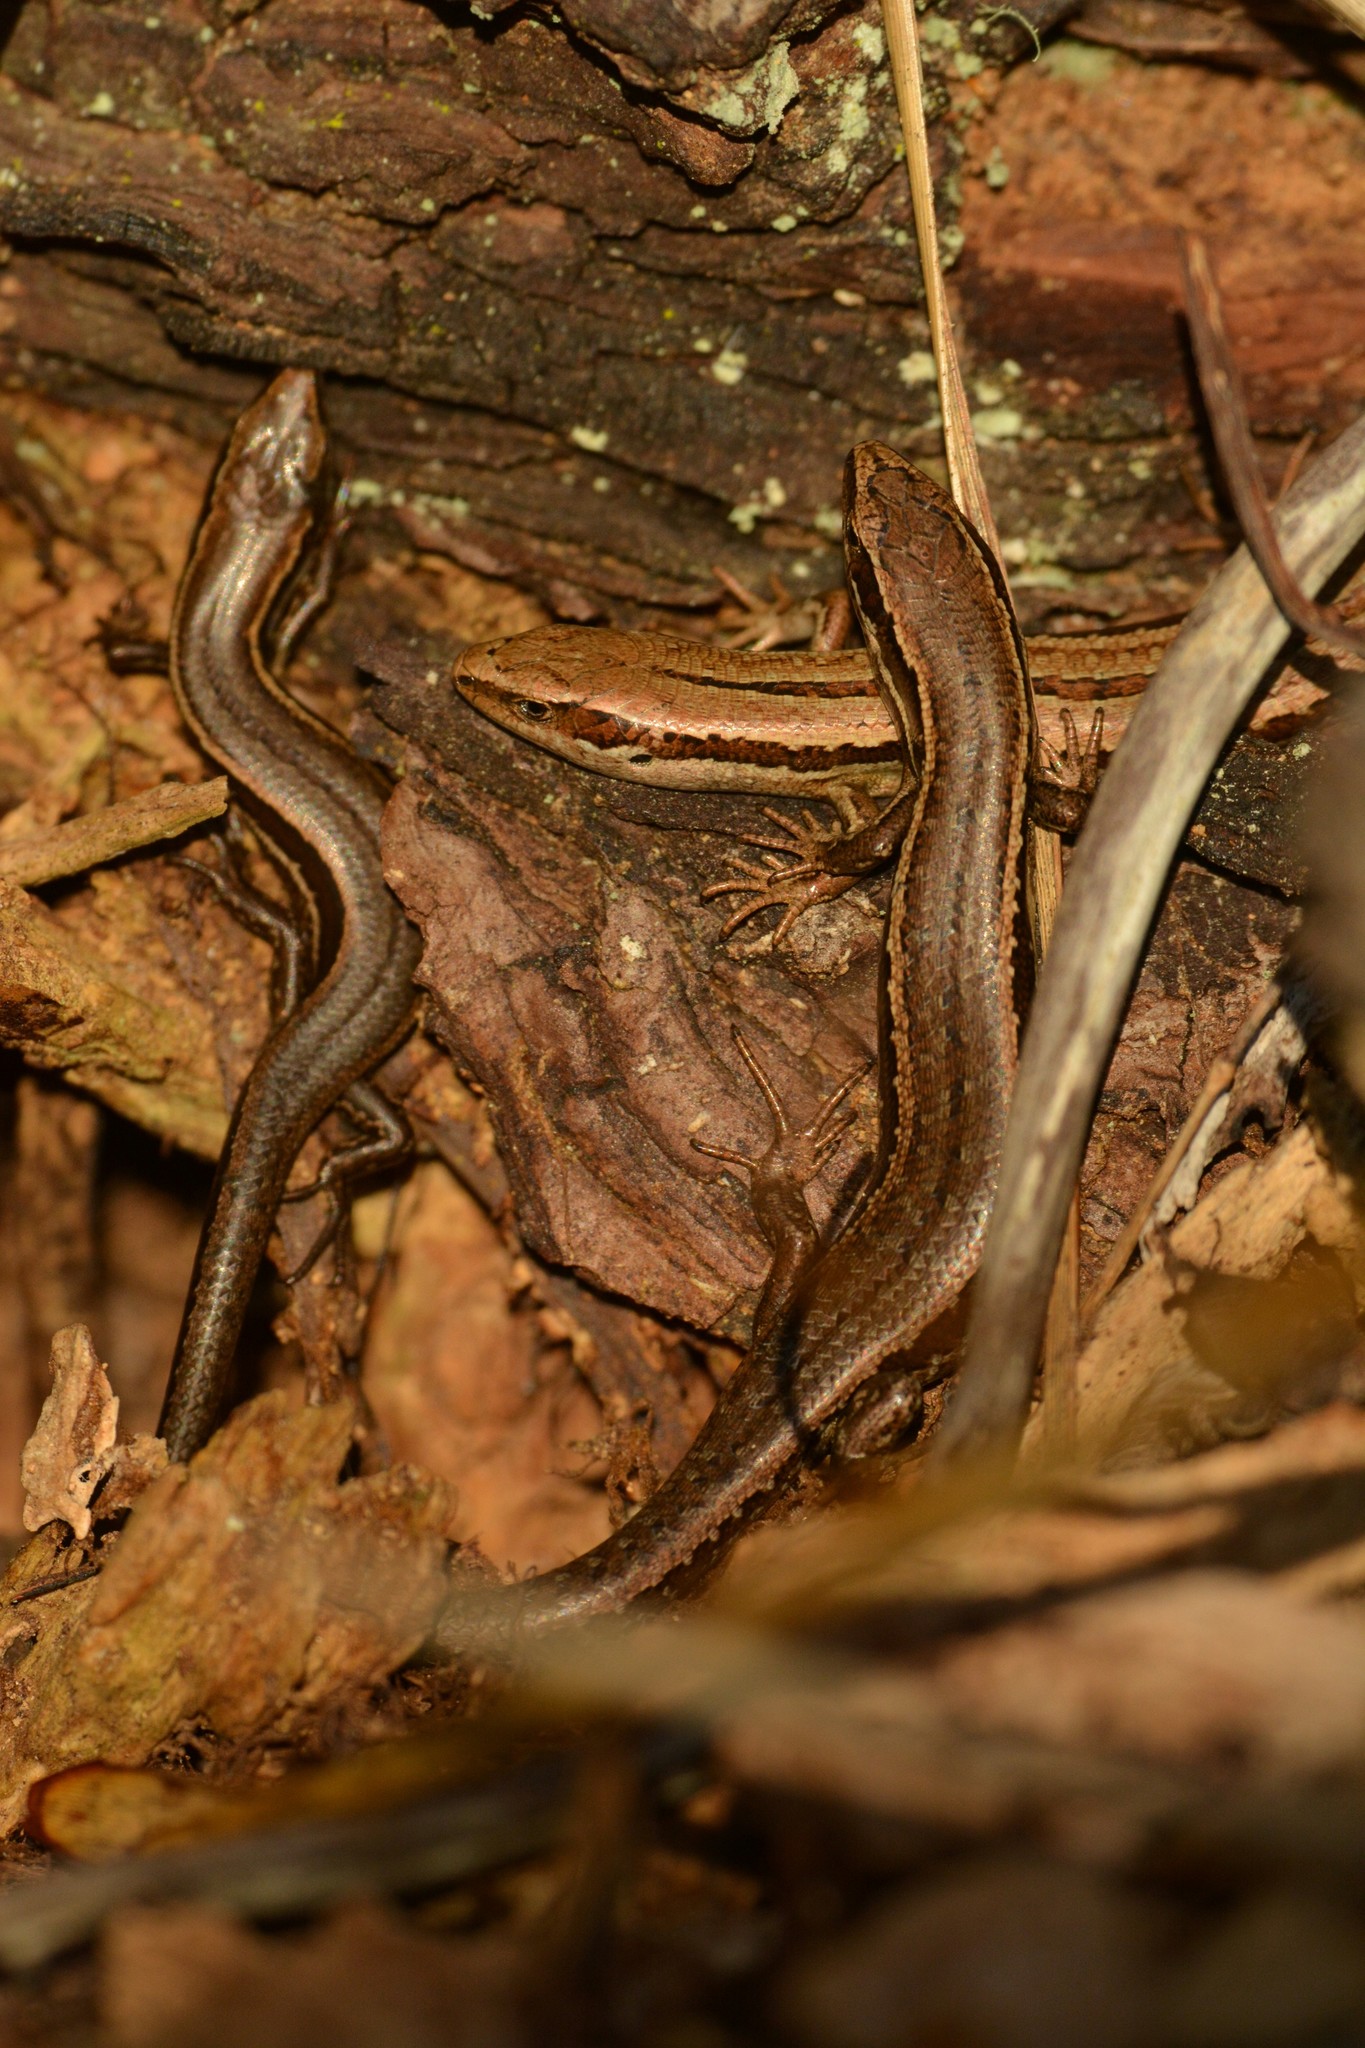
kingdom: Animalia
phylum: Chordata
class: Squamata
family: Scincidae
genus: Oligosoma
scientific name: Oligosoma polychroma
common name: Common new zealand skink
